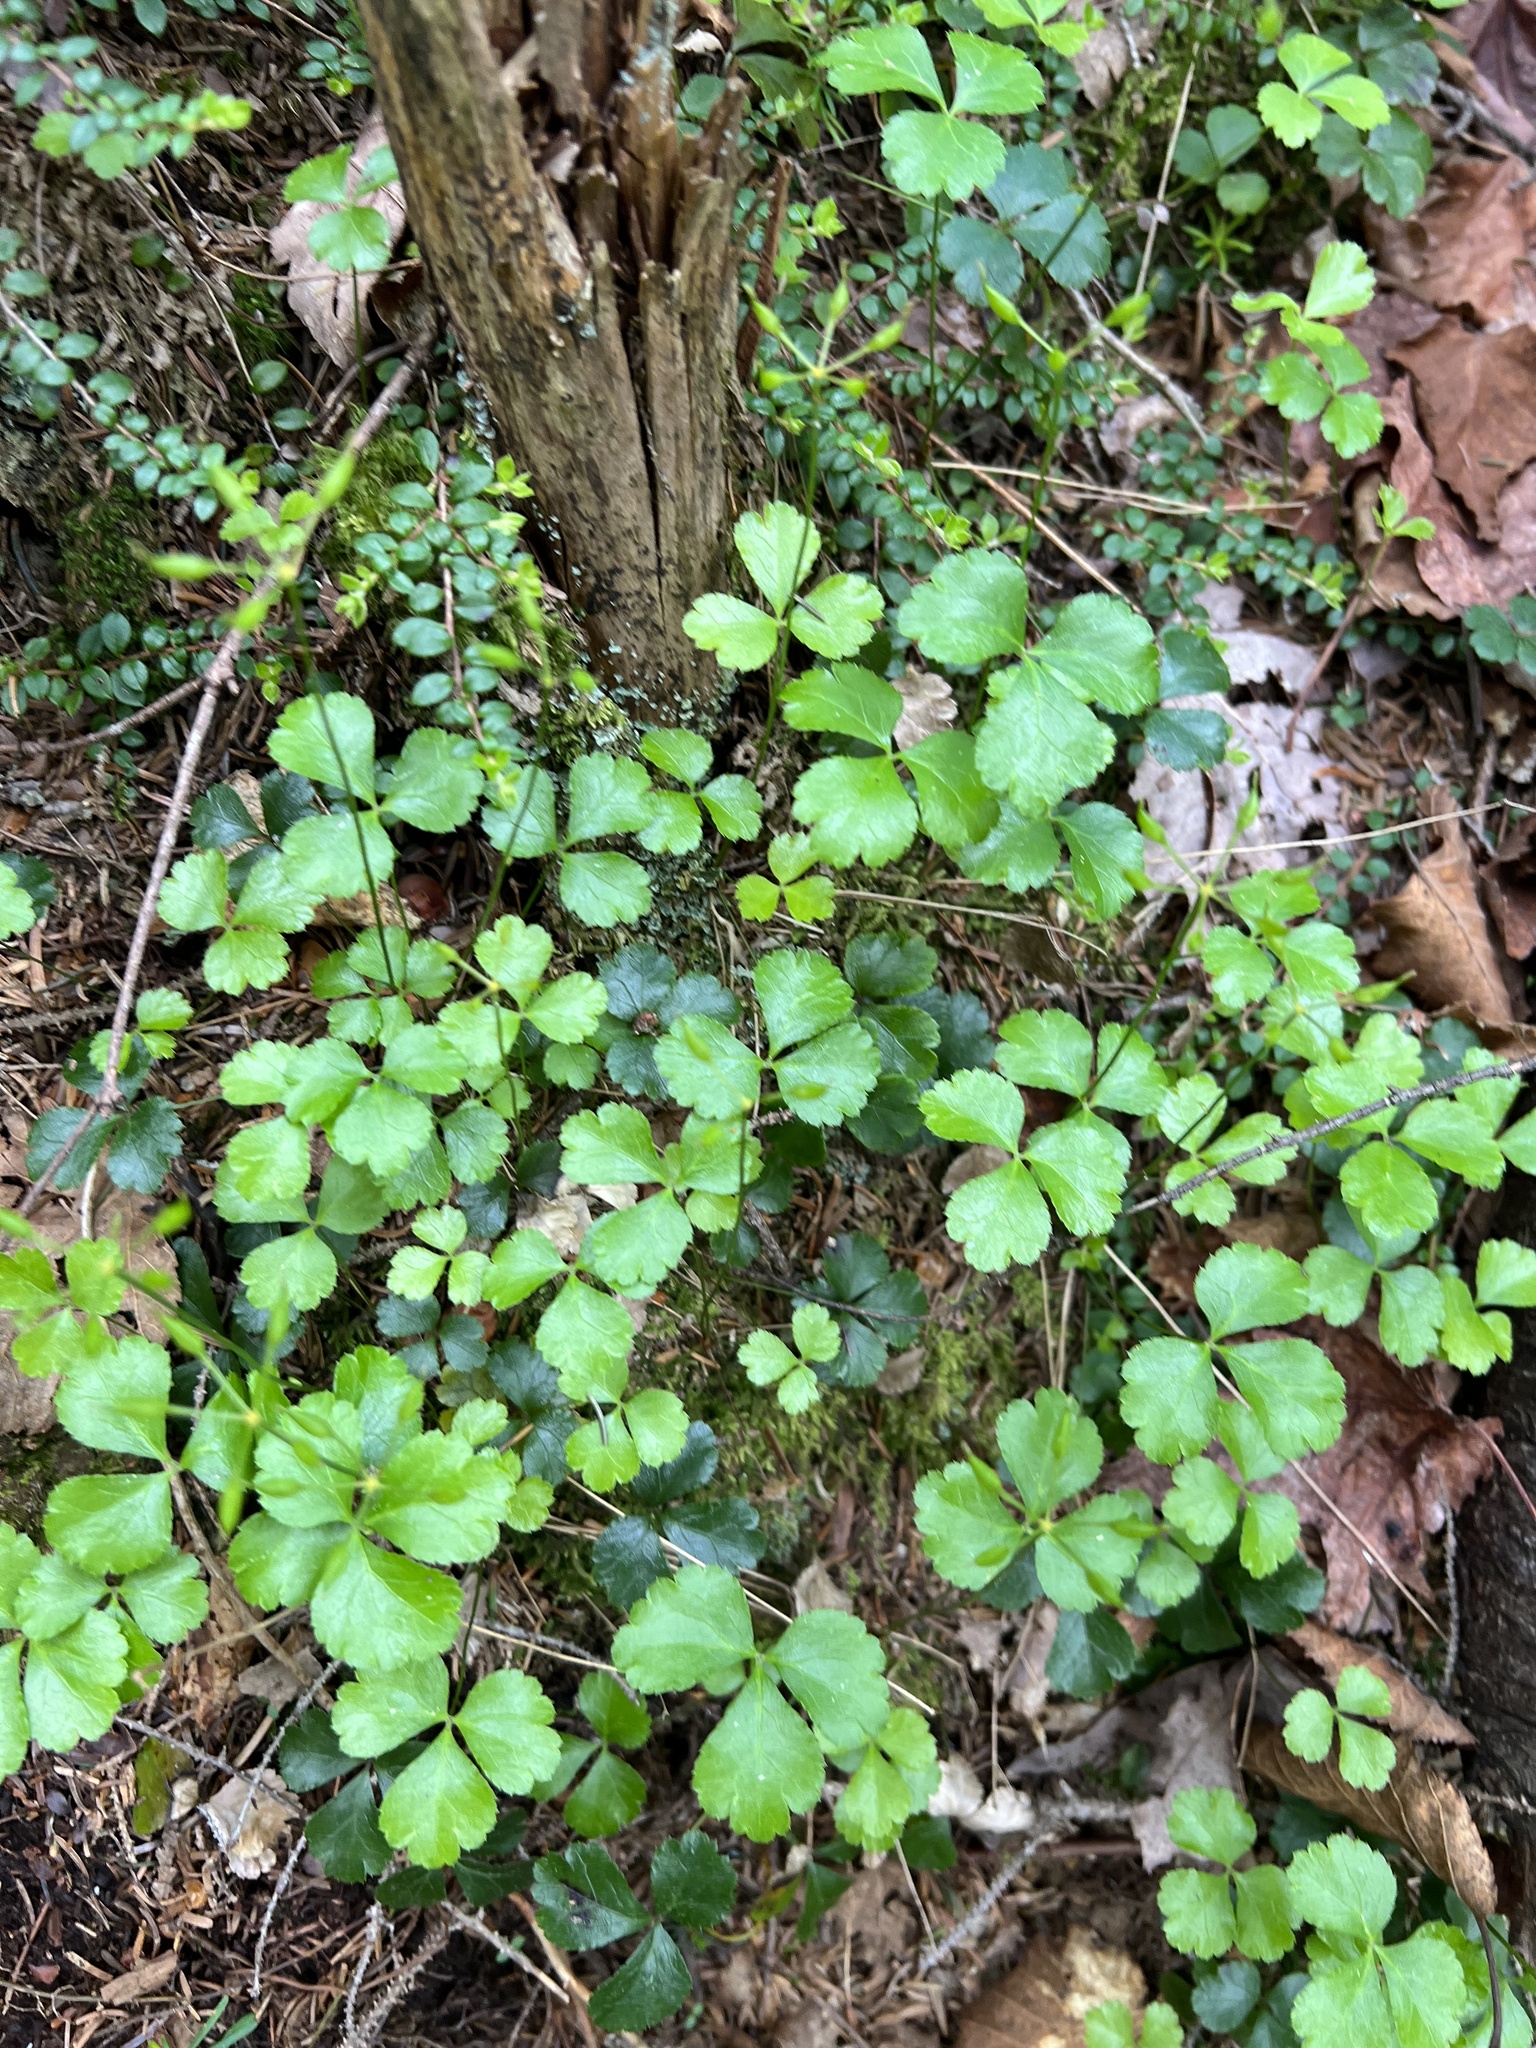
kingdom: Plantae
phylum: Tracheophyta
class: Magnoliopsida
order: Ranunculales
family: Ranunculaceae
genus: Coptis
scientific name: Coptis trifolia
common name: Canker-root
